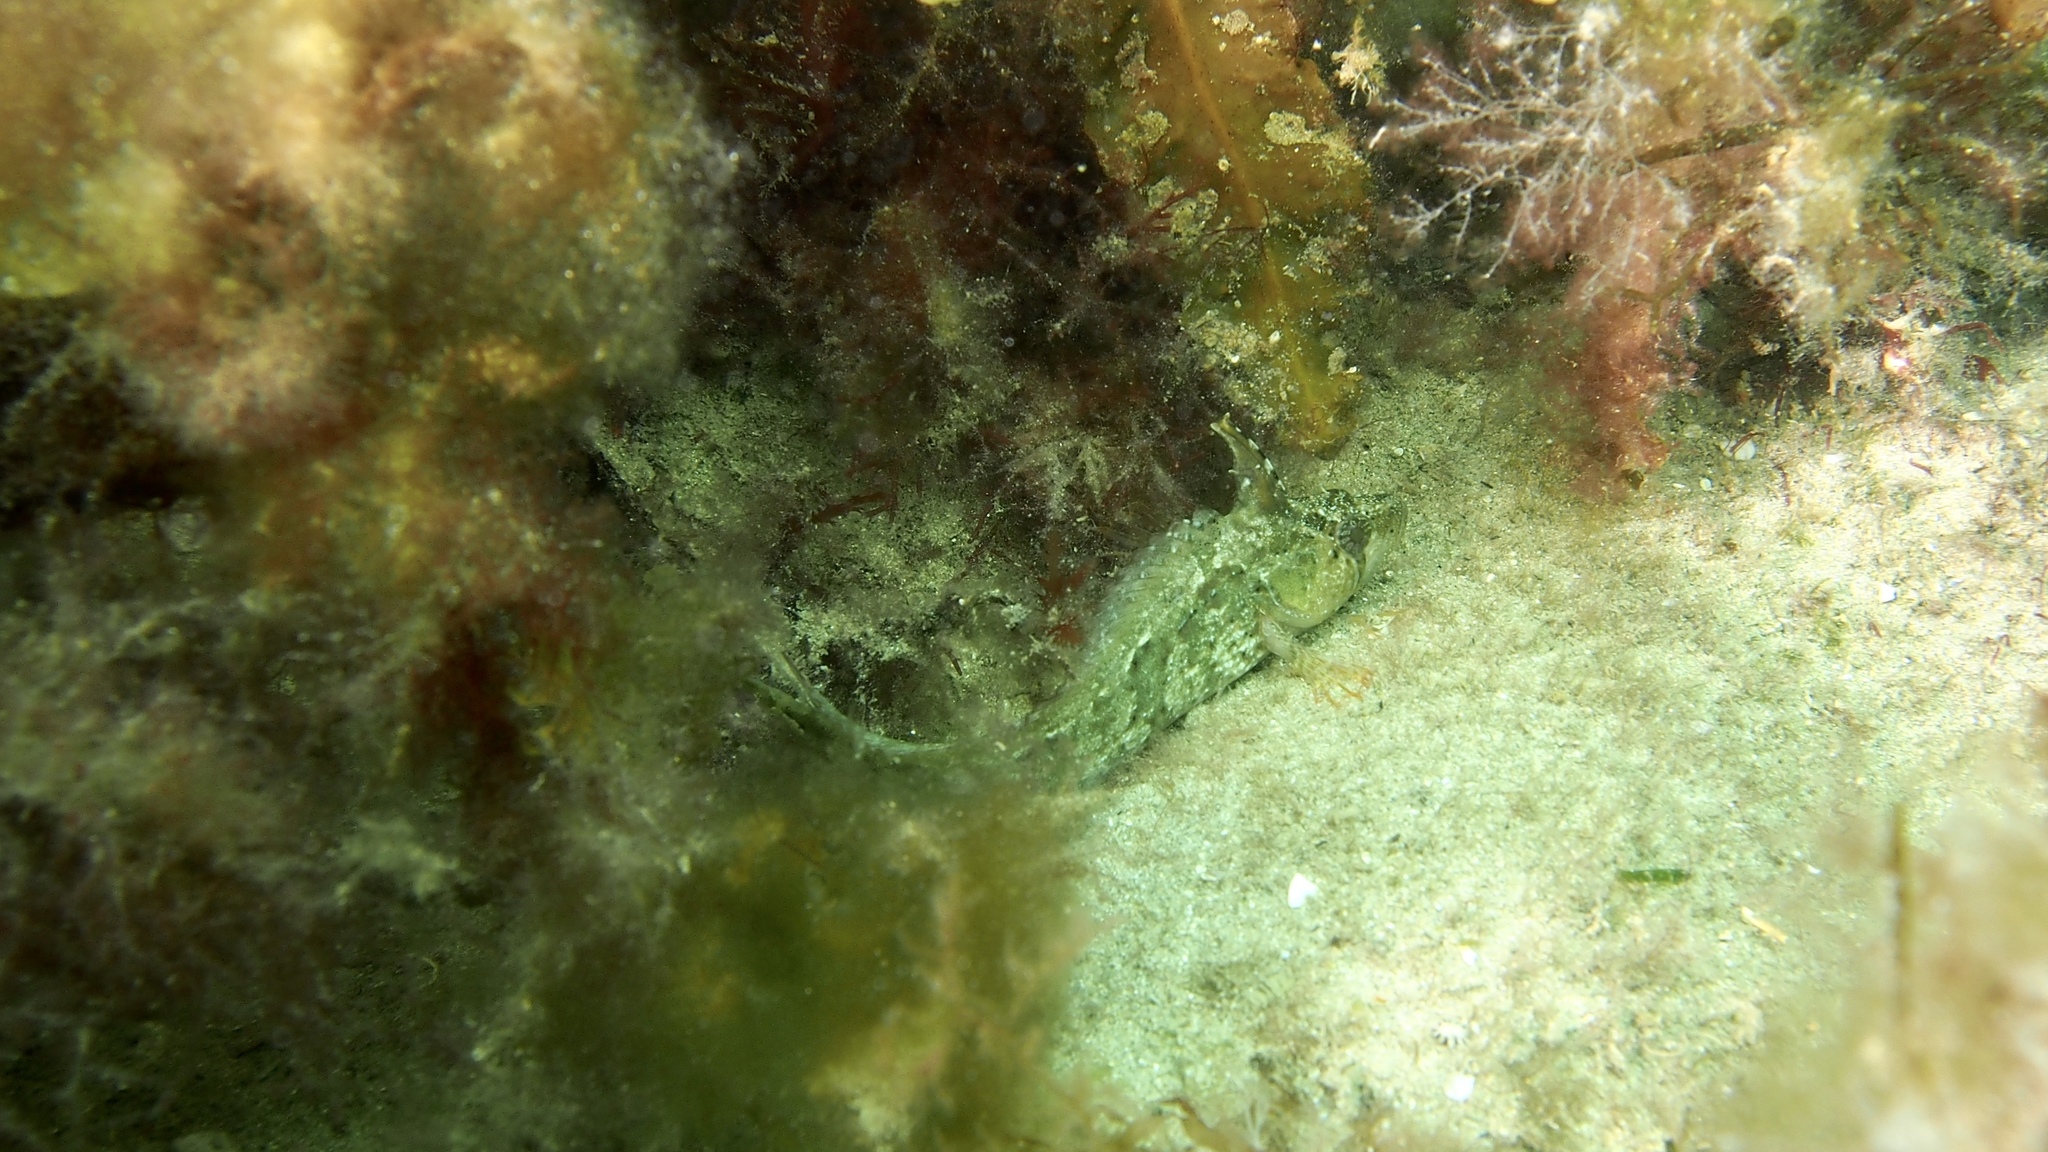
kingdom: Animalia
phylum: Chordata
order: Perciformes
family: Clinidae
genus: Heteroclinus
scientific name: Heteroclinus tristis
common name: Sharp-nose weedfish
